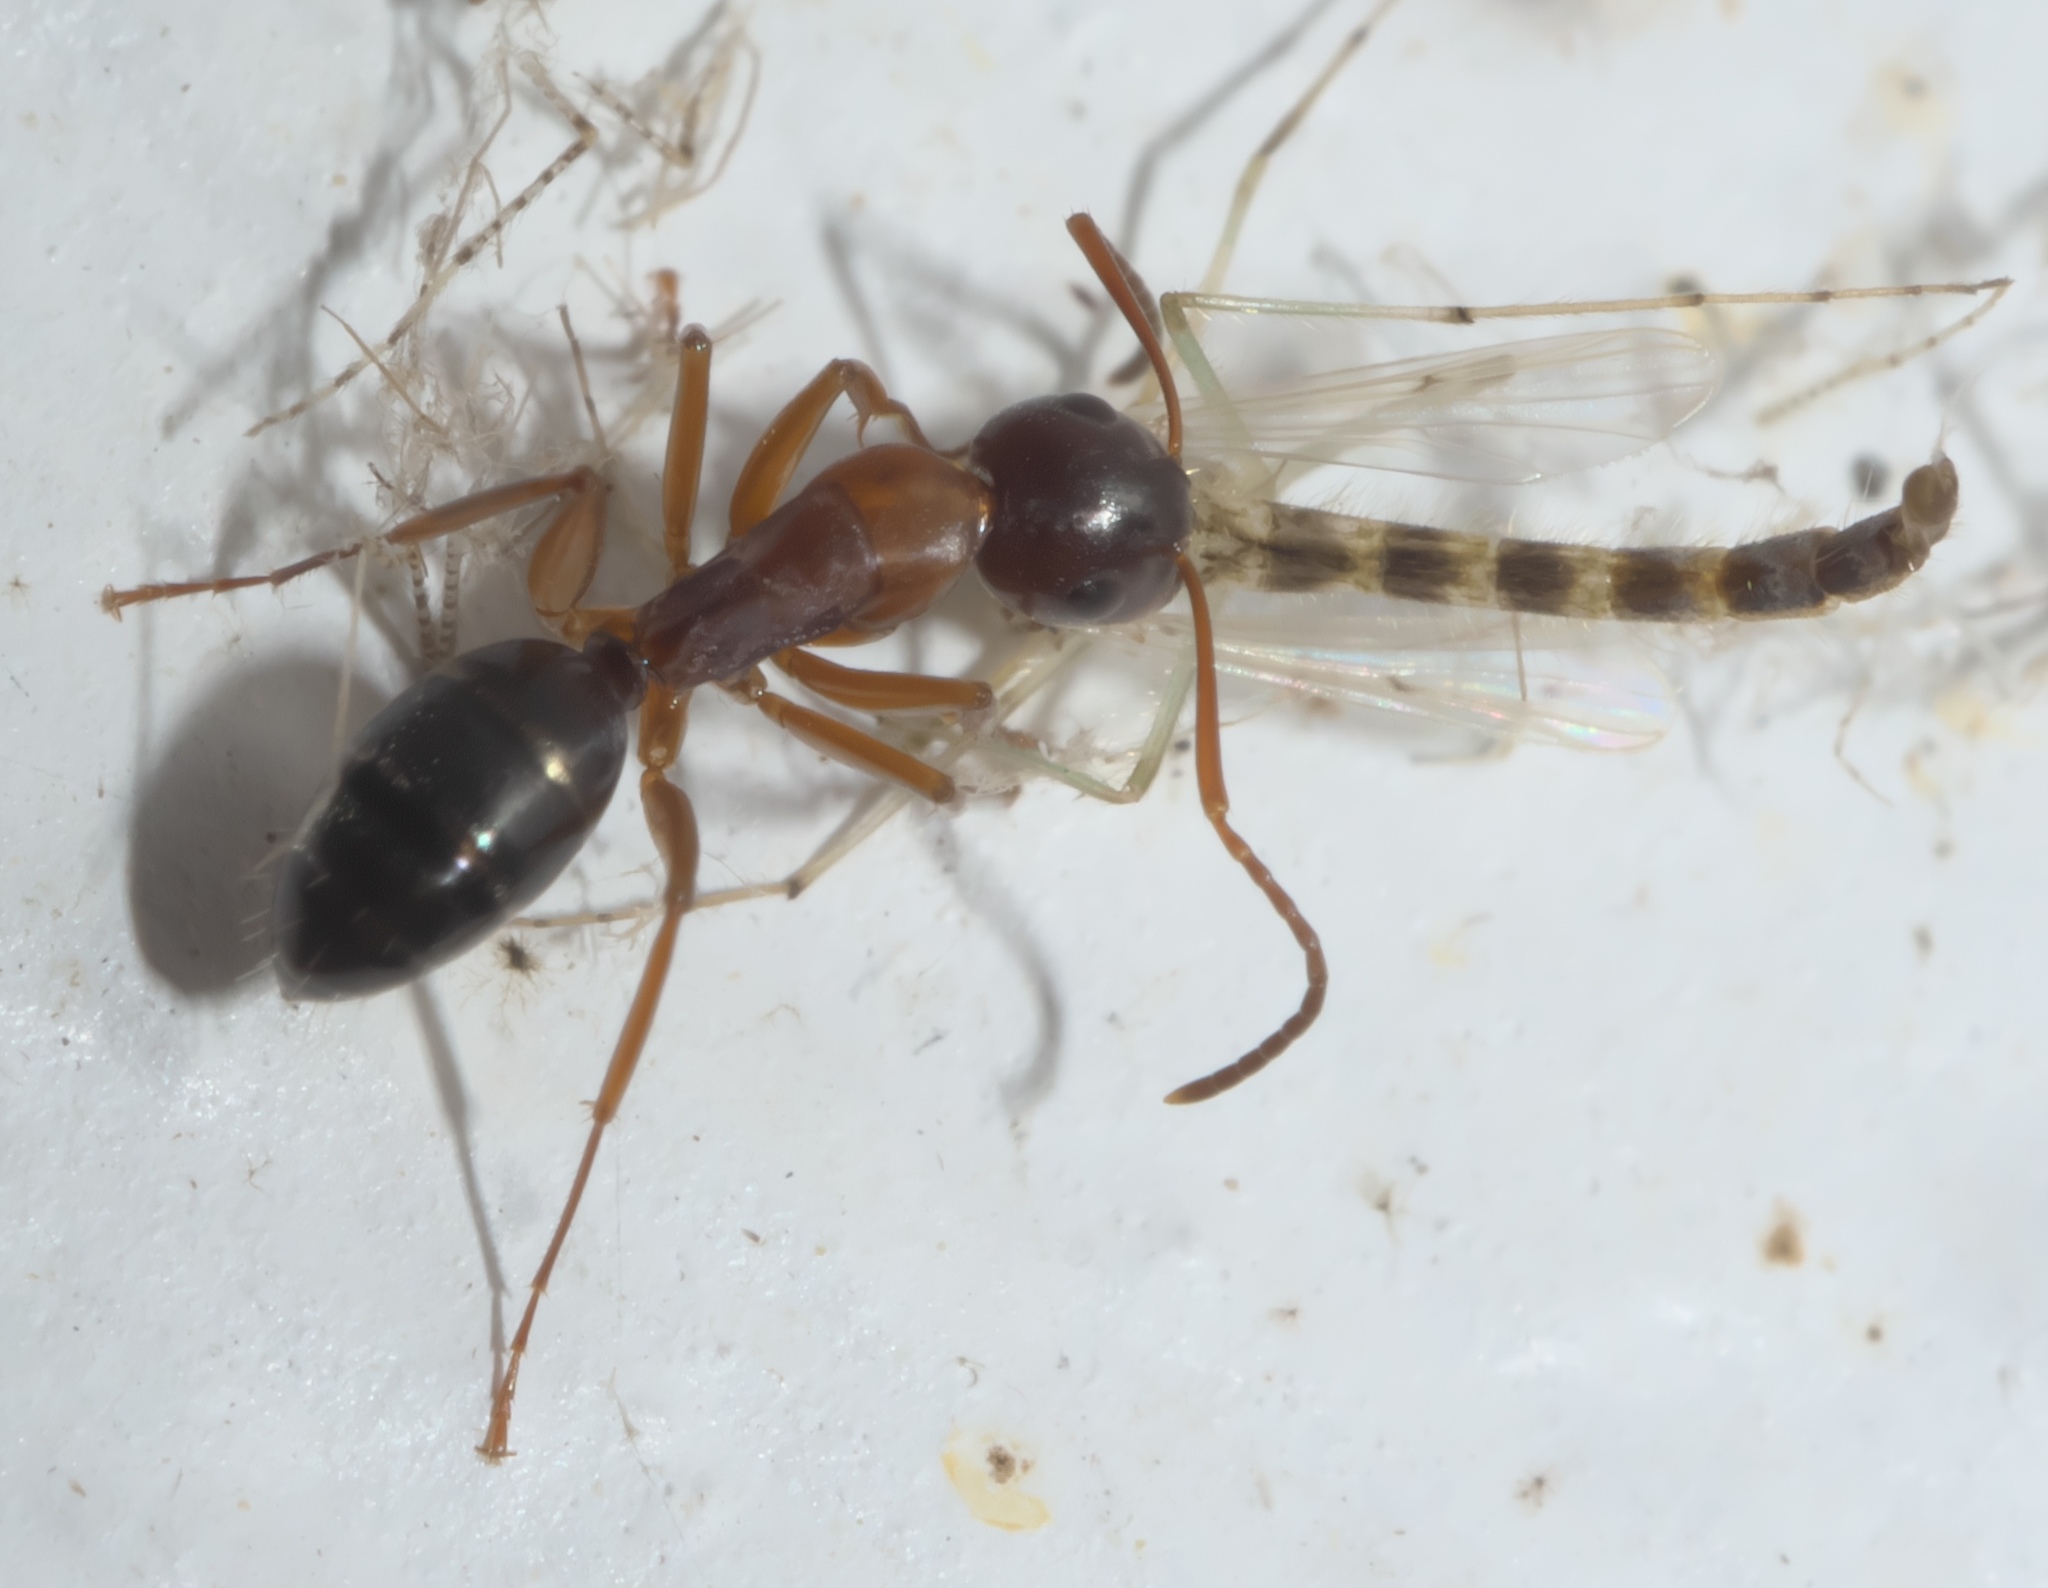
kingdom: Animalia
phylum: Arthropoda
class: Insecta
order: Hymenoptera
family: Formicidae
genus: Camponotus
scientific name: Camponotus nearcticus
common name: Smaller carpenter ant
